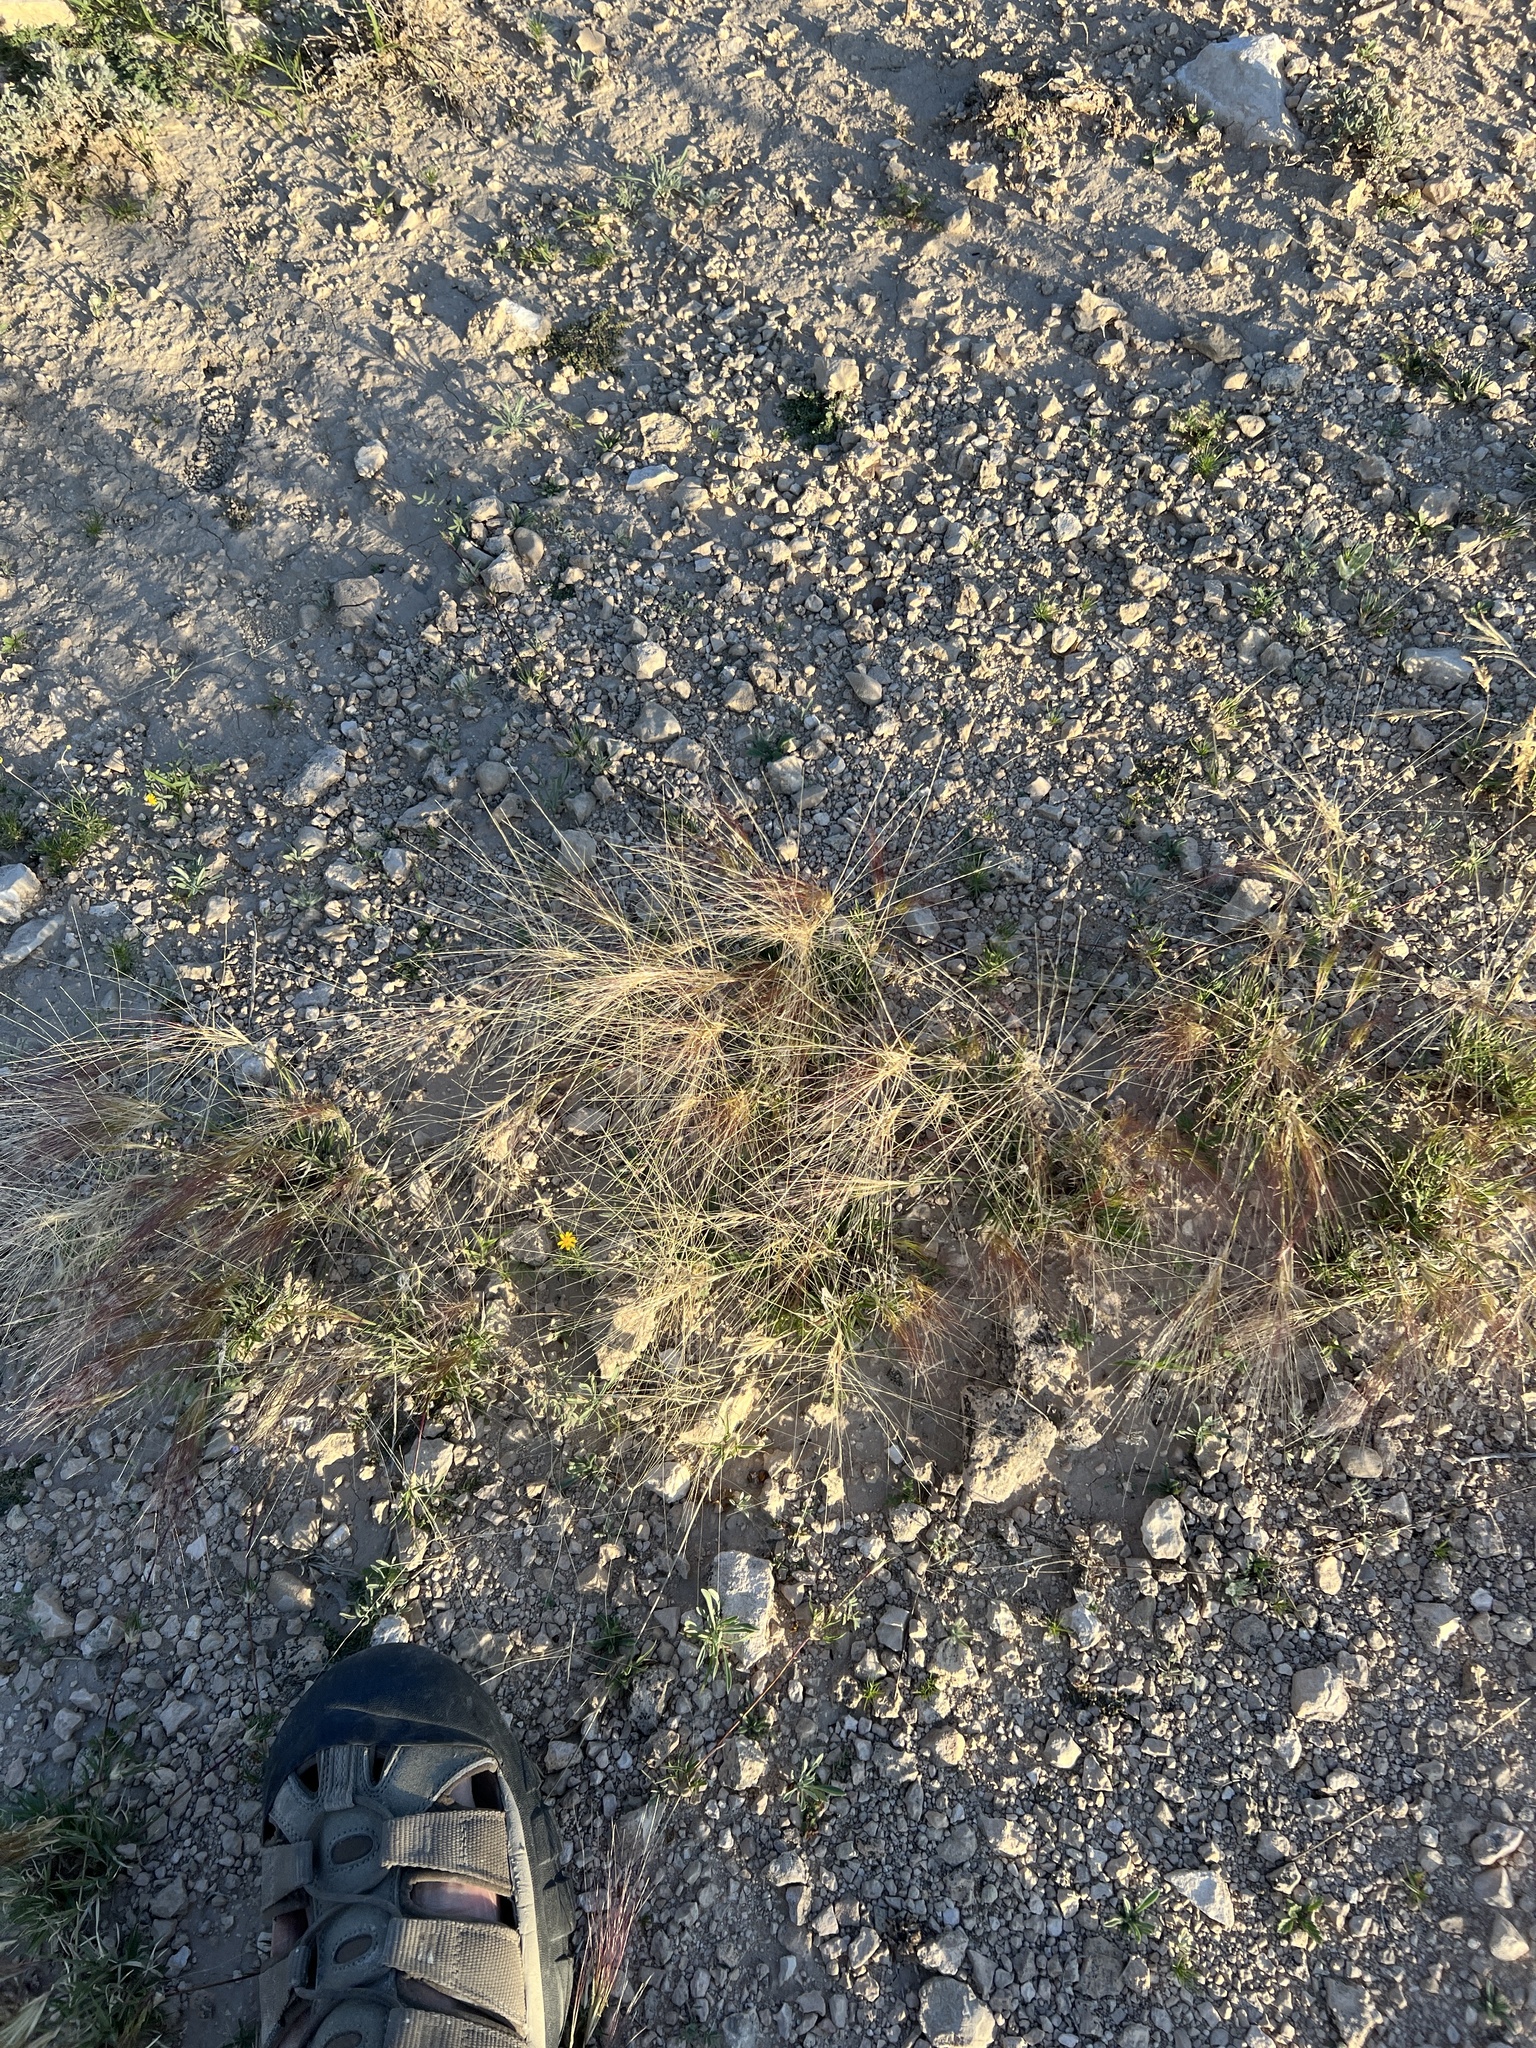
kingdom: Plantae
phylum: Tracheophyta
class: Liliopsida
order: Poales
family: Poaceae
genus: Scleropogon
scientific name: Scleropogon brevifolius
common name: Burro grass
